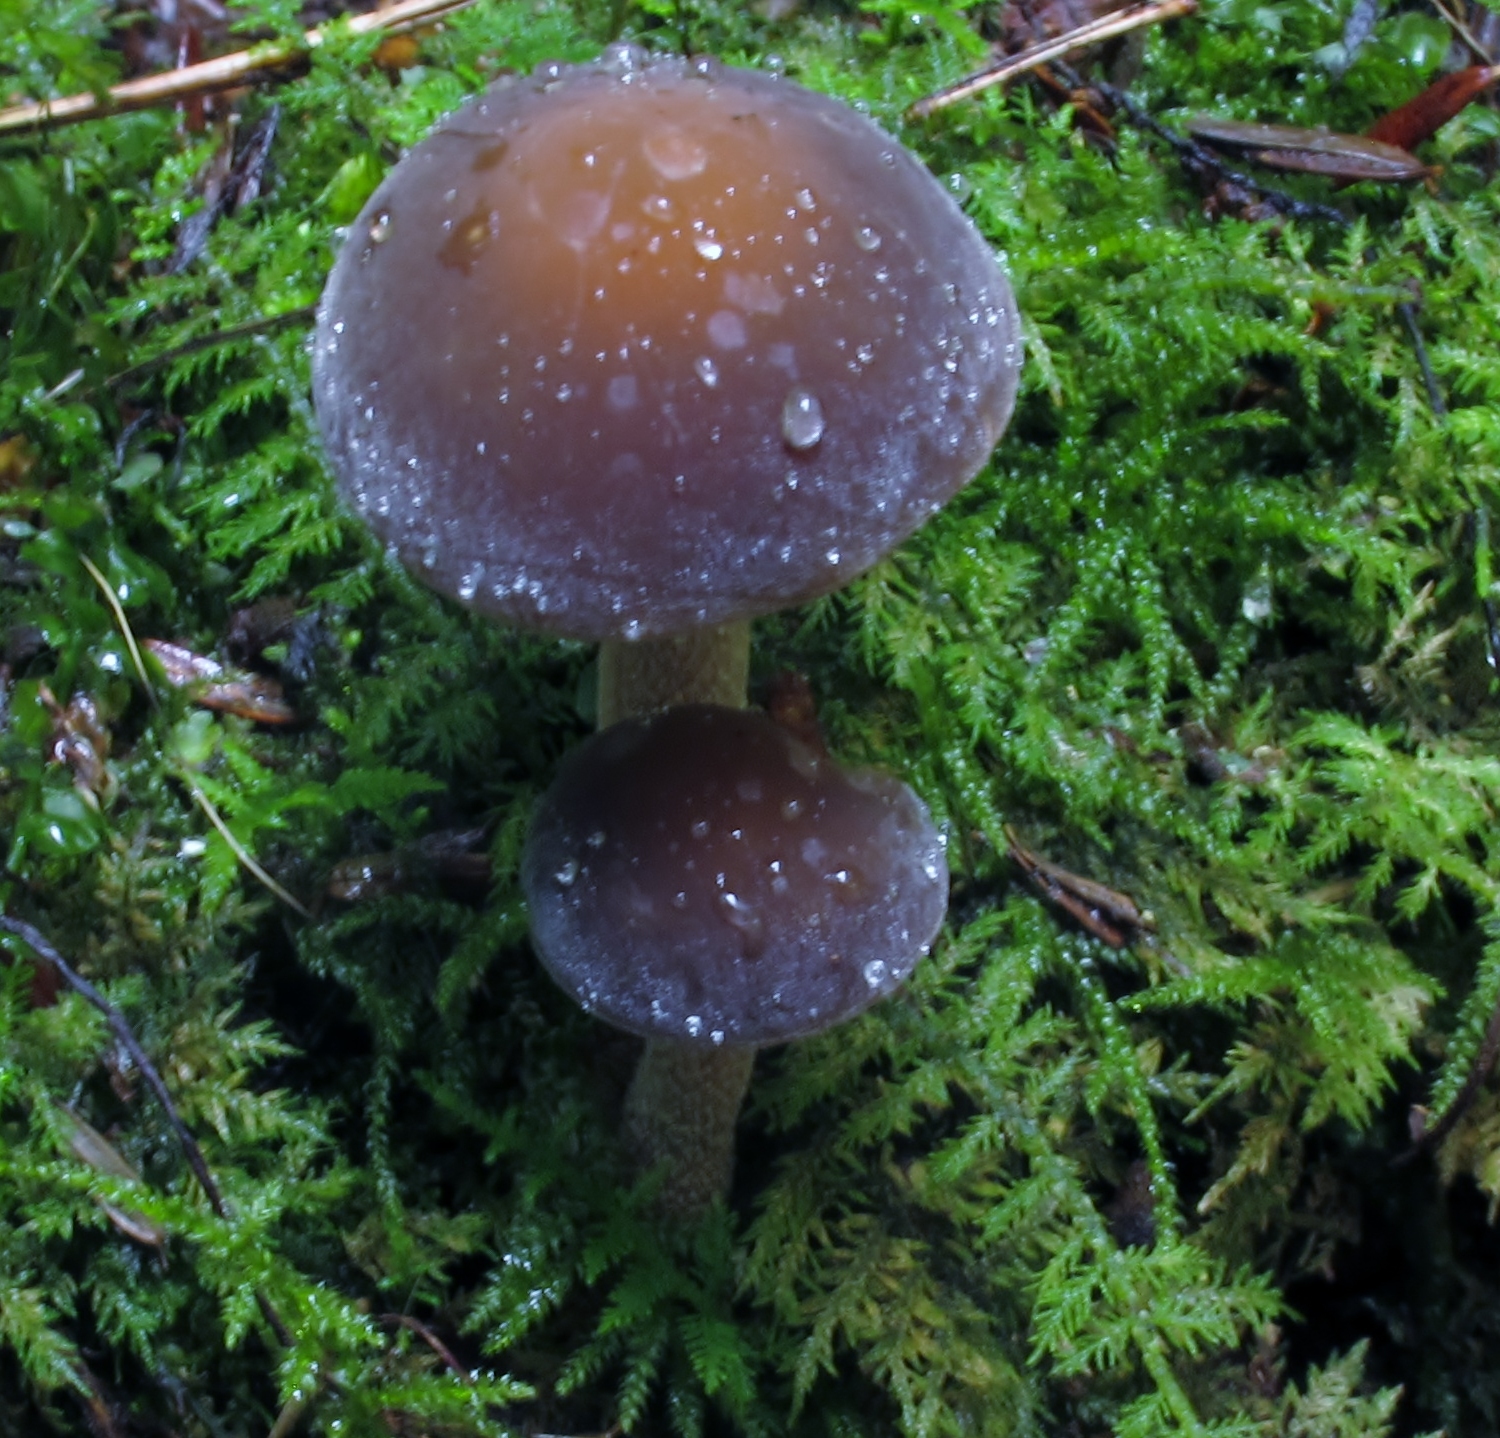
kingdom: Fungi
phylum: Basidiomycota
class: Agaricomycetes
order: Agaricales
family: Strophariaceae
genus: Agrocybe
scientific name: Agrocybe firma
